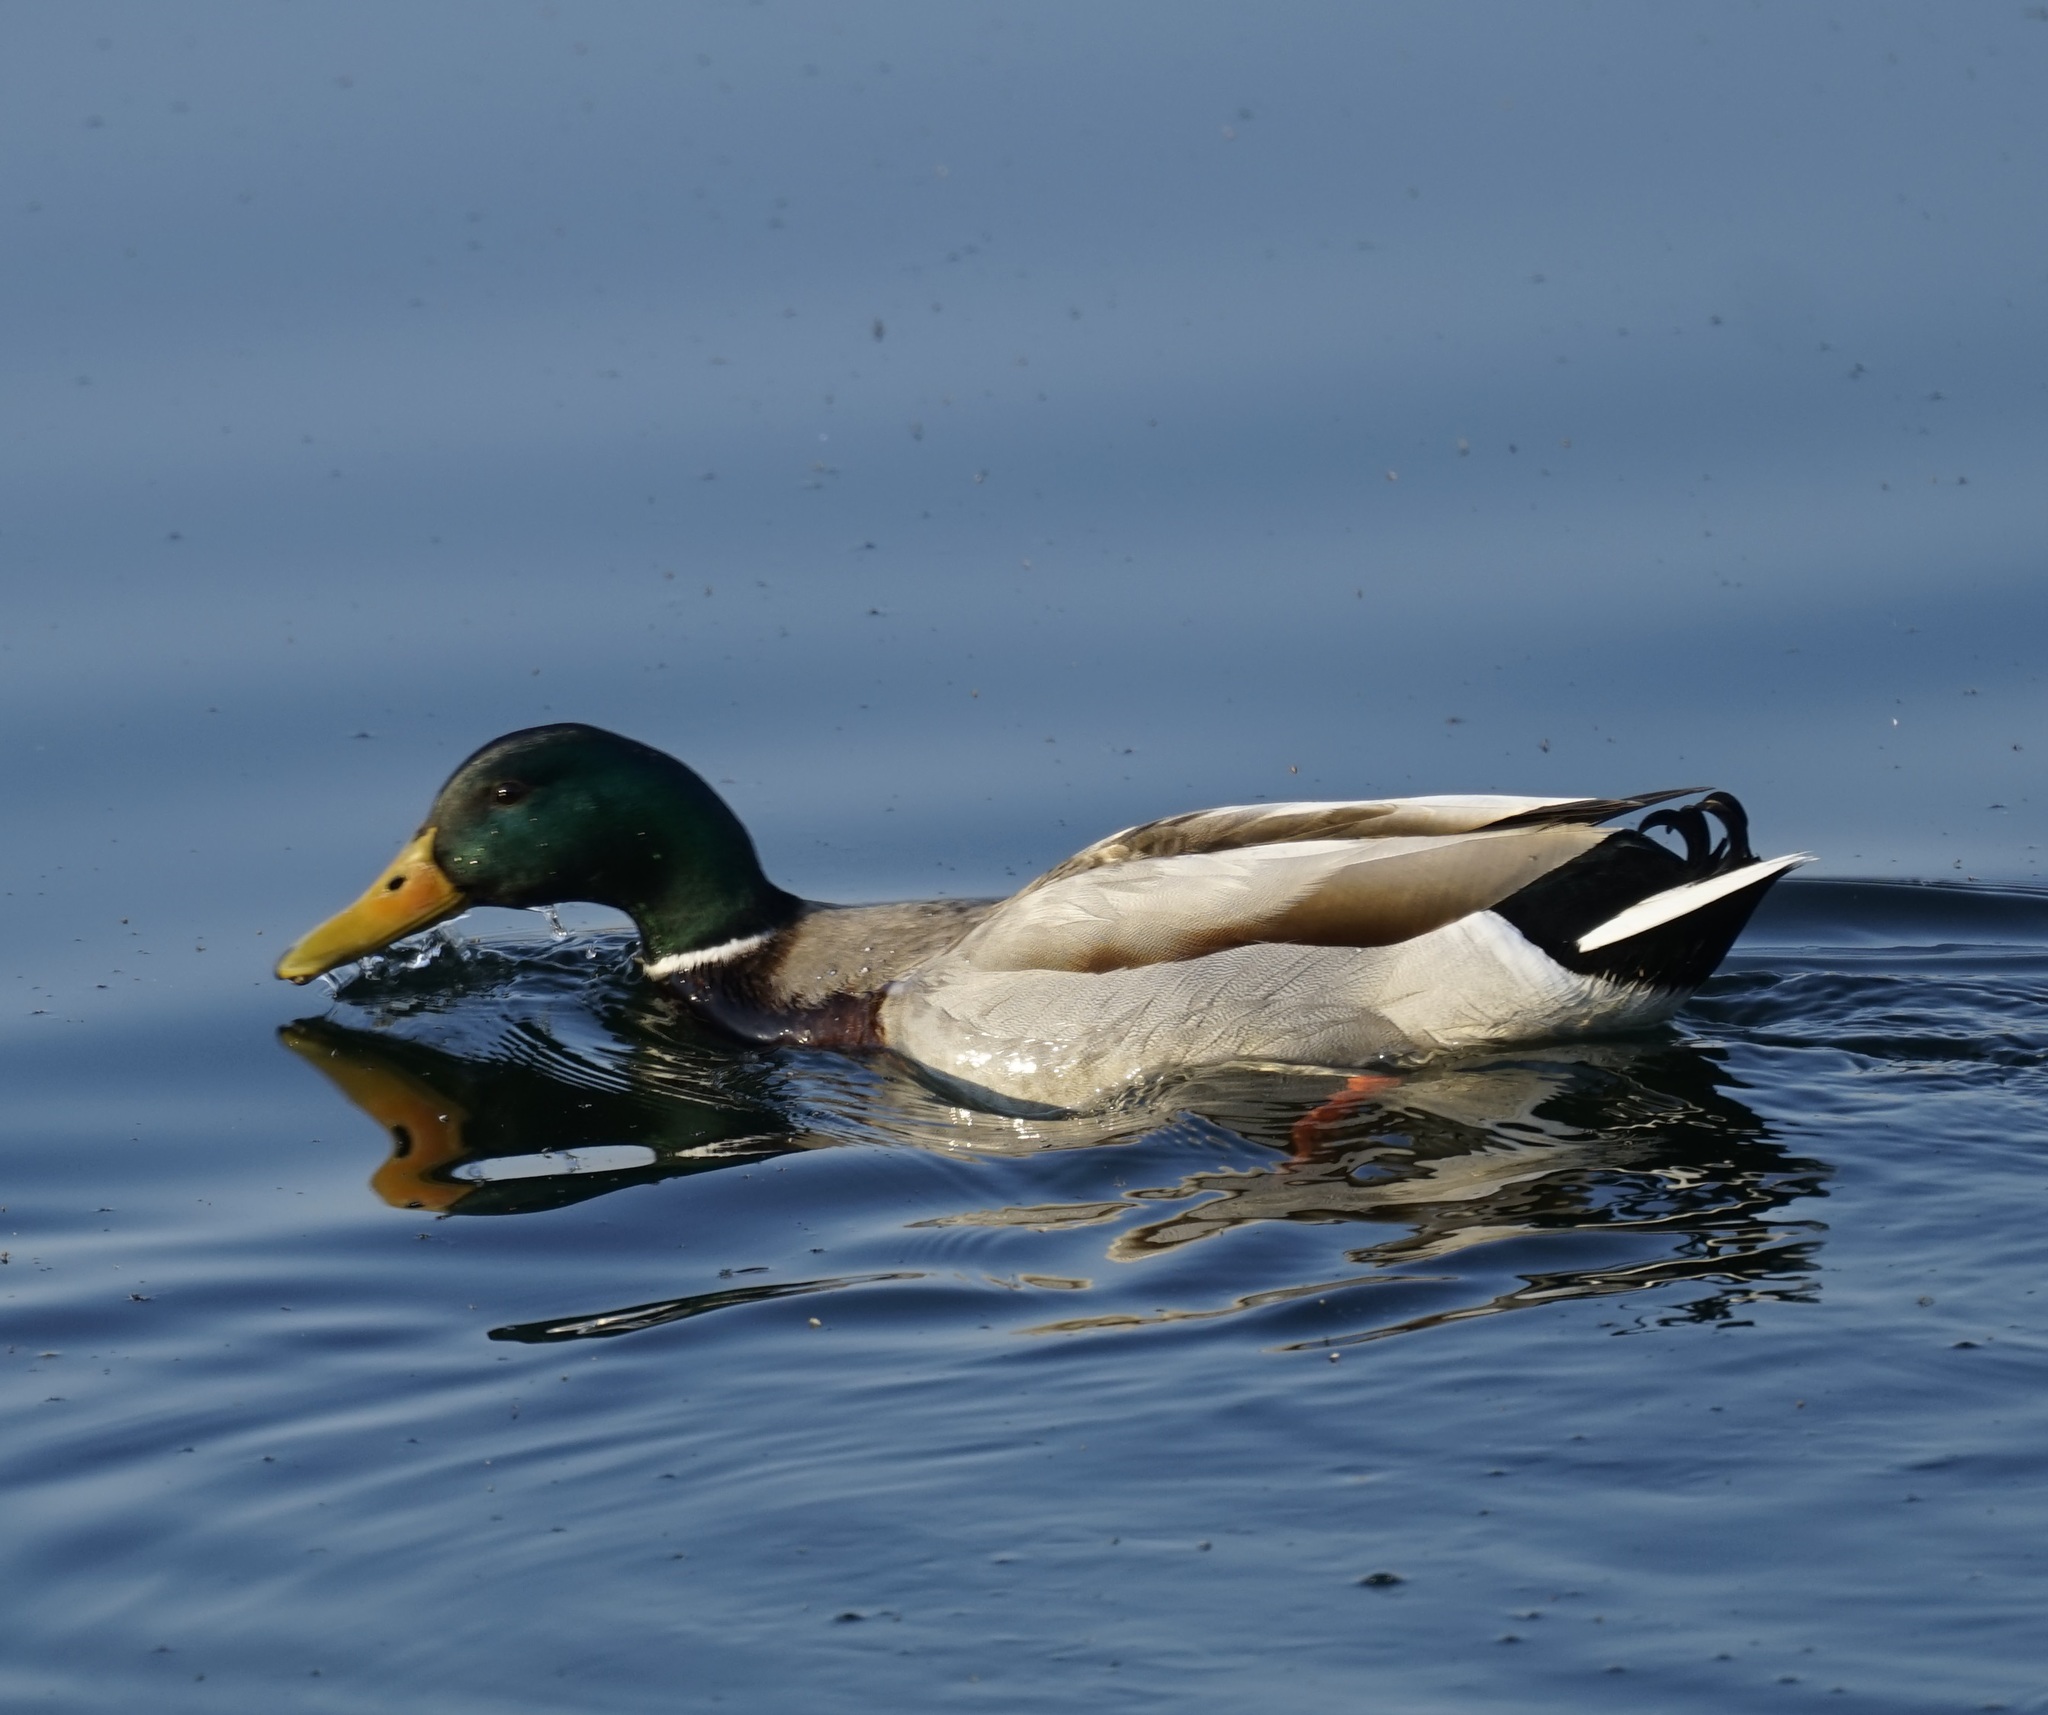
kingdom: Animalia
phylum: Chordata
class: Aves
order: Anseriformes
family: Anatidae
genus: Anas
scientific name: Anas platyrhynchos
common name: Mallard
